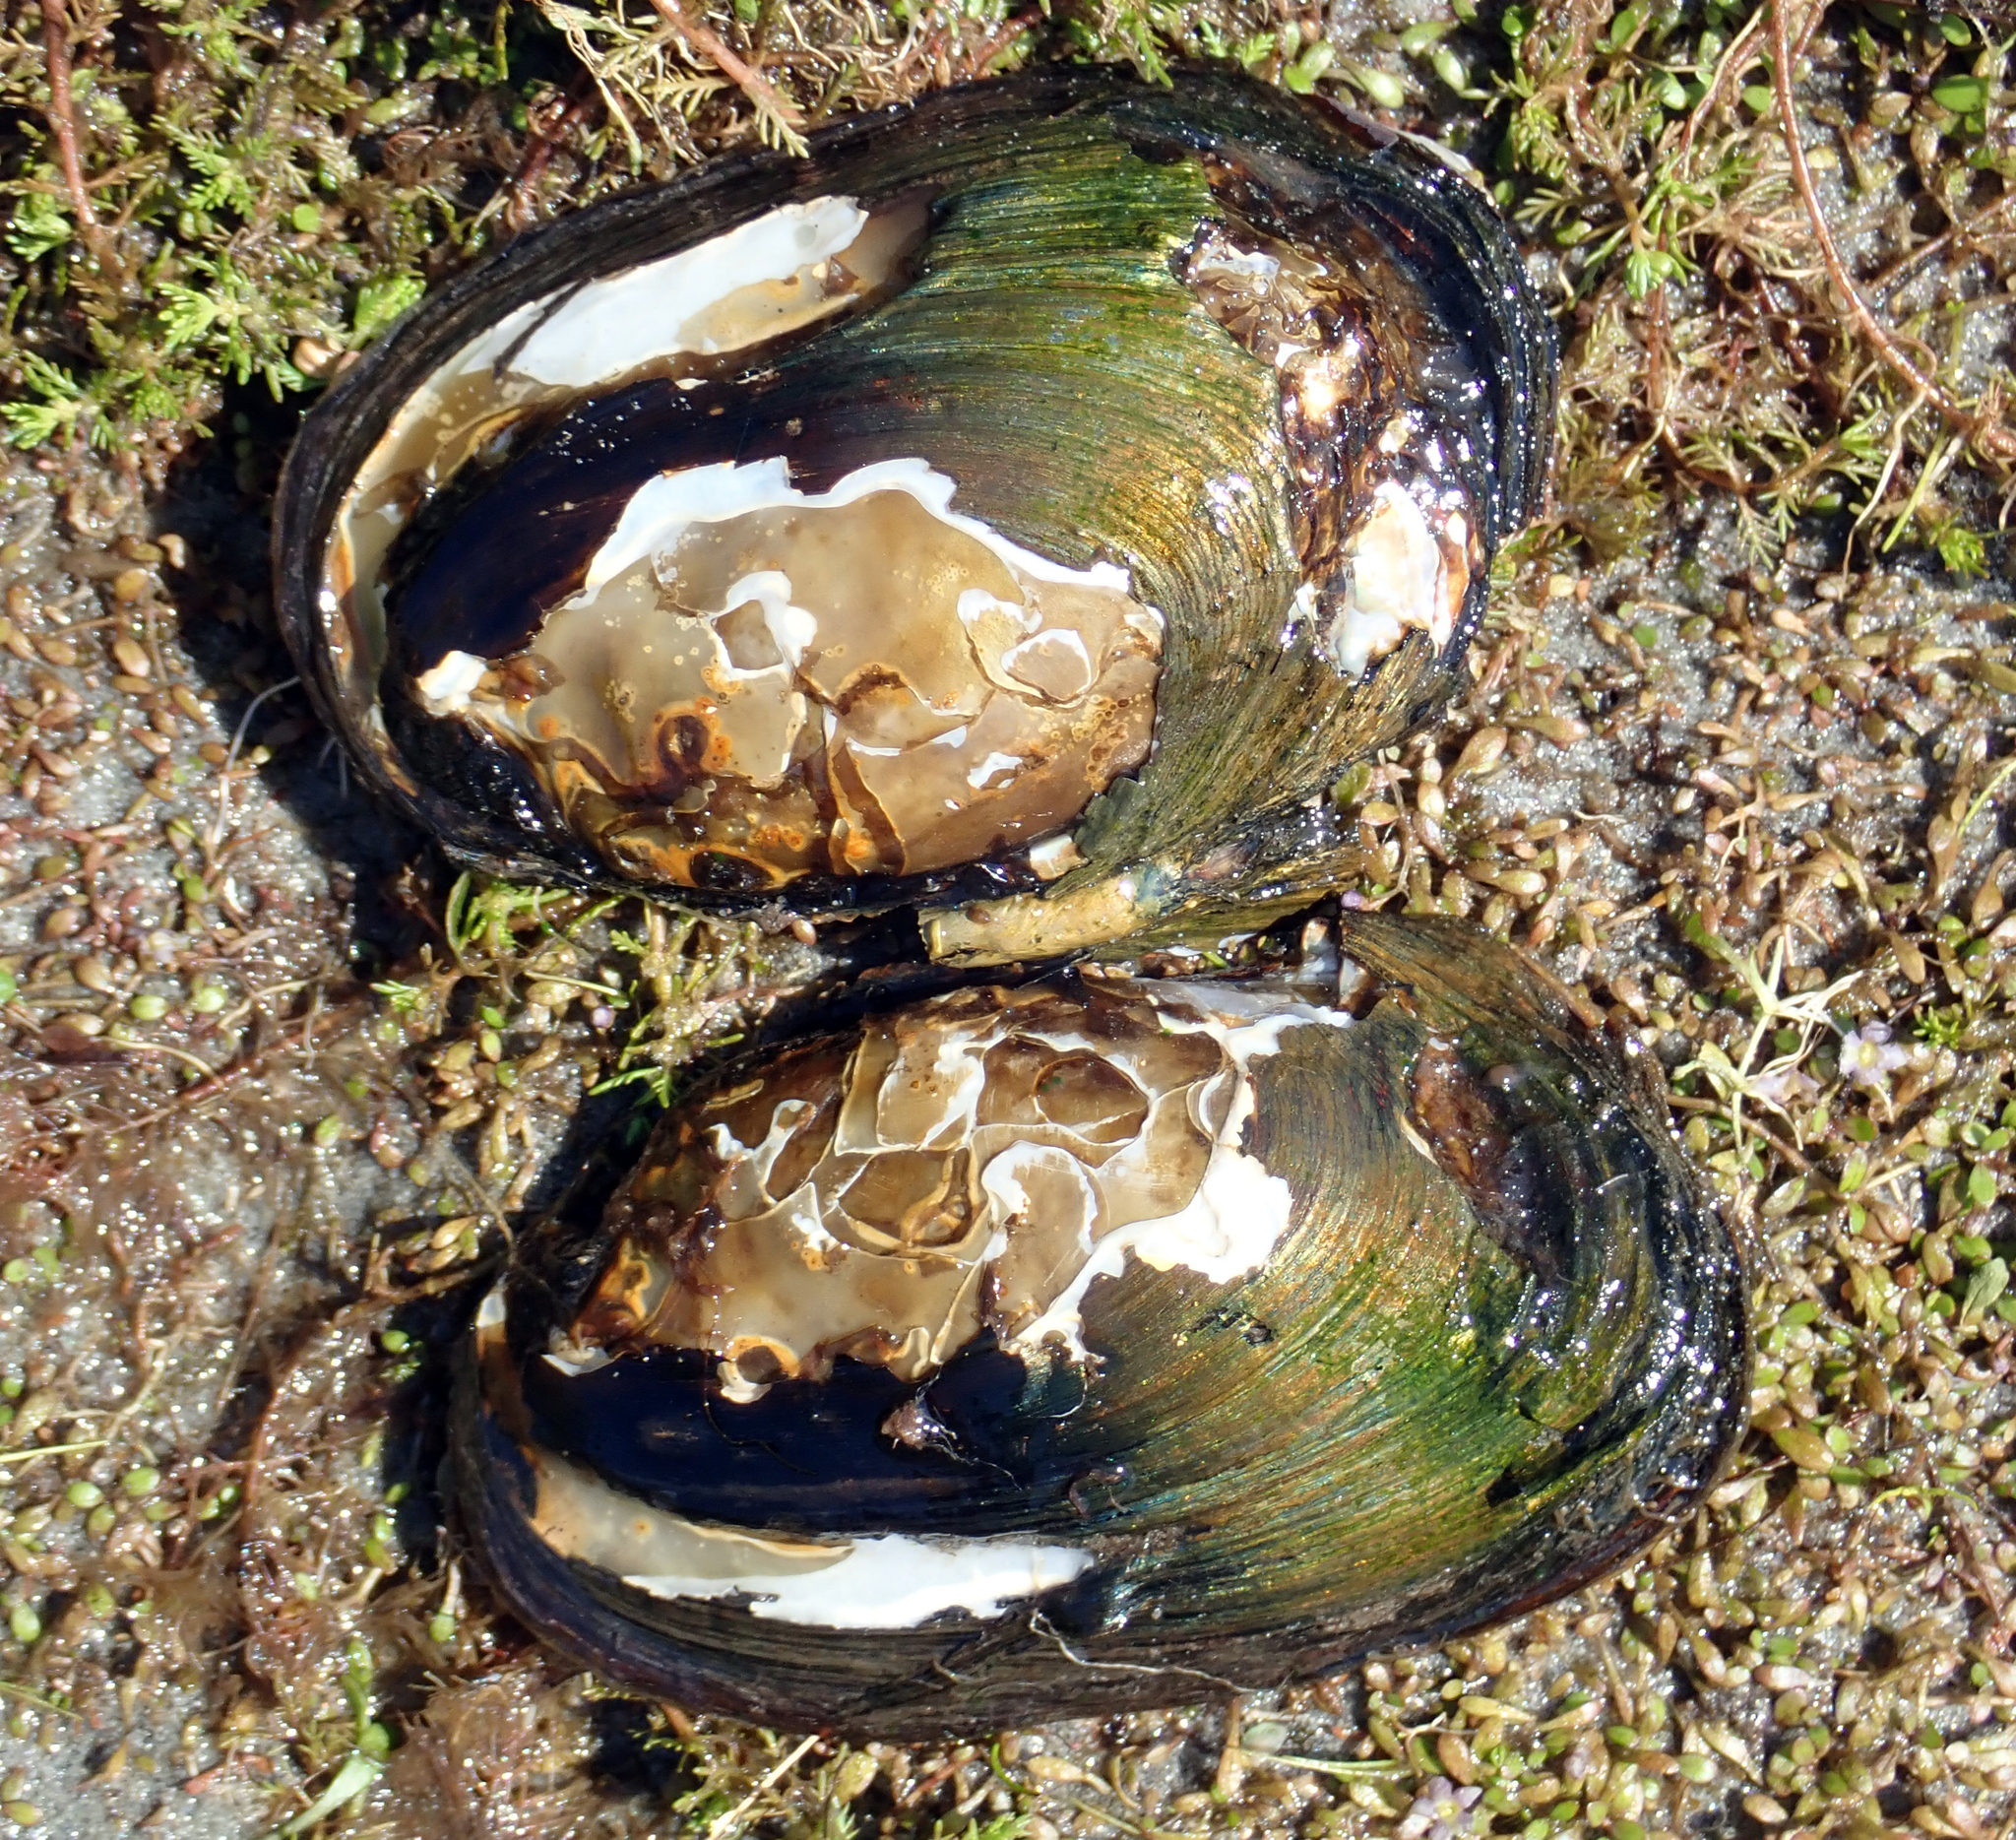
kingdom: Animalia
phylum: Mollusca
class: Bivalvia
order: Unionida
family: Hyriidae
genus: Echyridella
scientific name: Echyridella menziesii
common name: New zealand freshwater mussel
